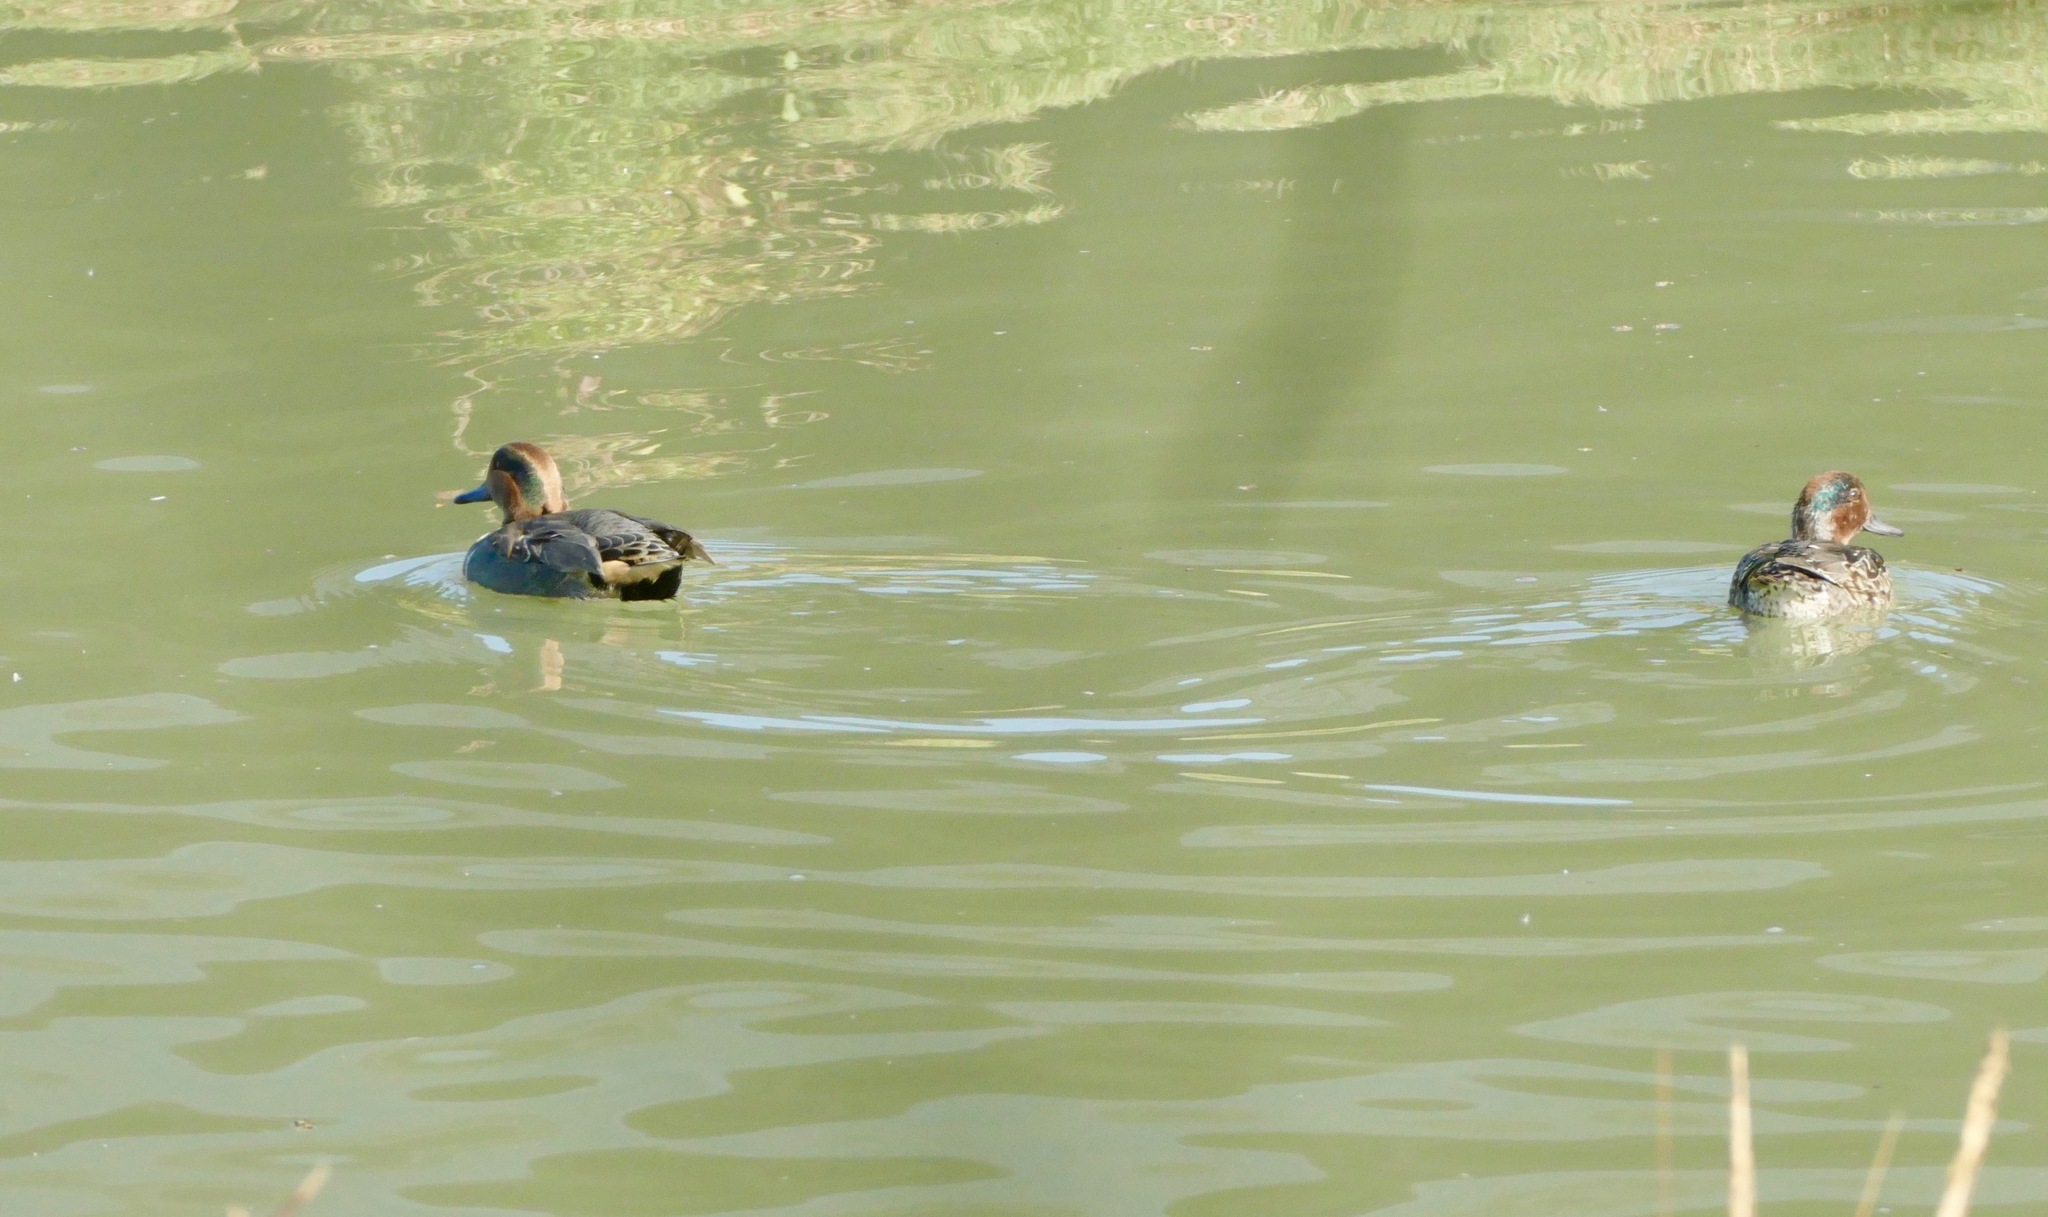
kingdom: Animalia
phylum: Chordata
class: Aves
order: Anseriformes
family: Anatidae
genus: Anas
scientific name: Anas crecca
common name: Eurasian teal
